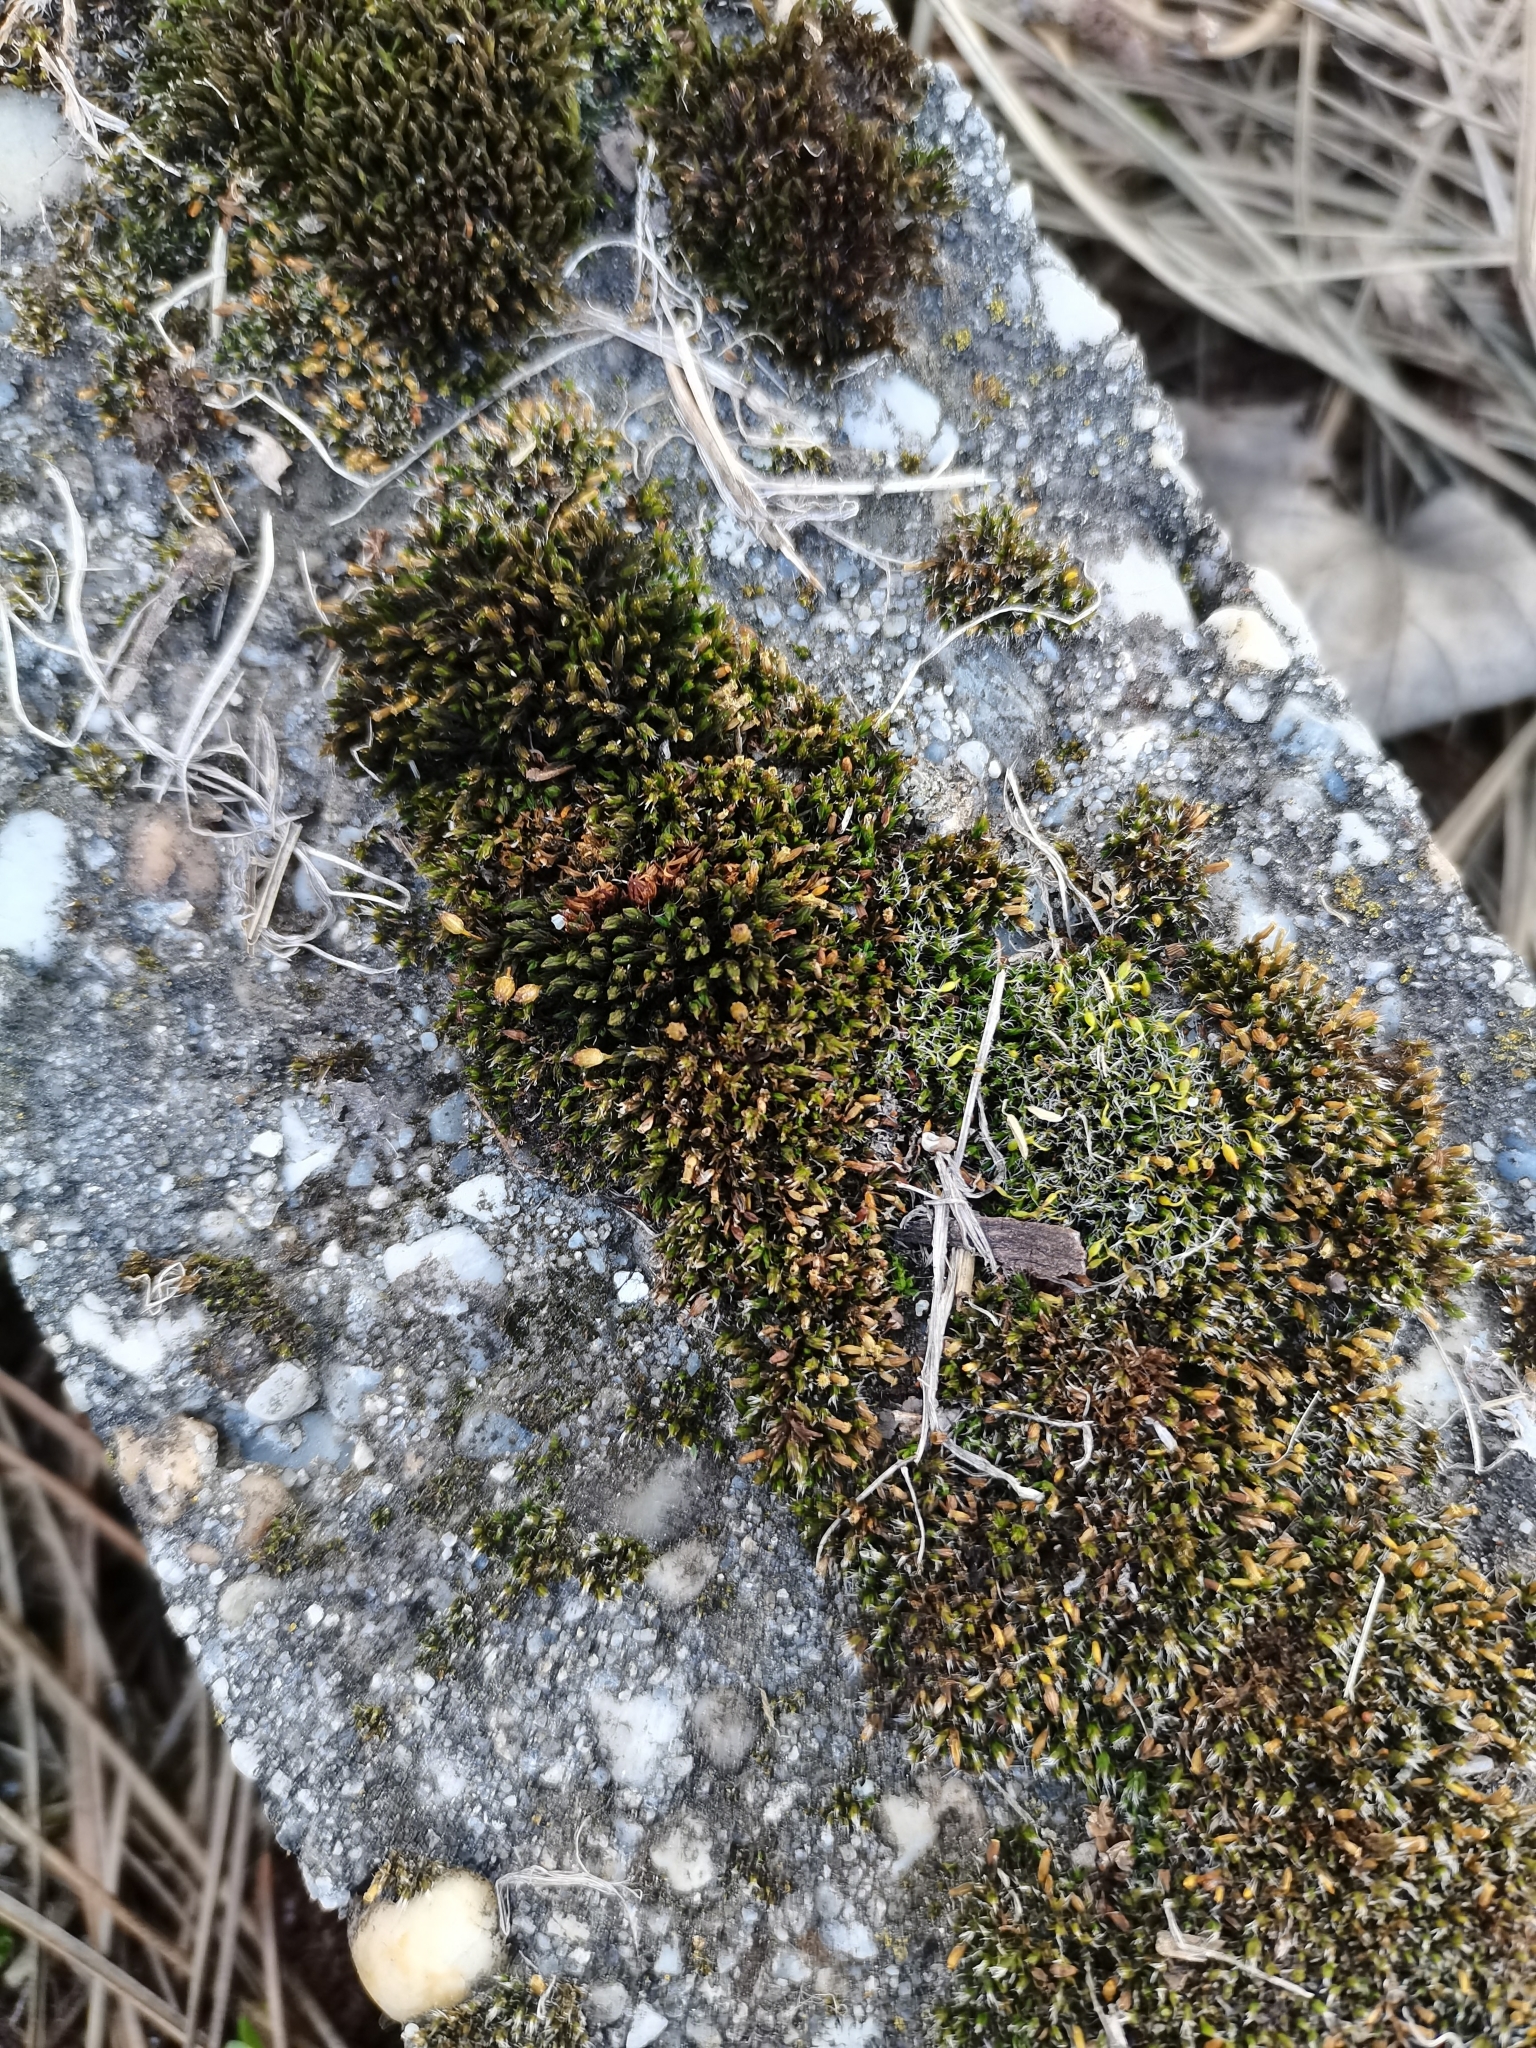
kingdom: Plantae
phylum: Bryophyta
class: Bryopsida
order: Orthotrichales
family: Orthotrichaceae
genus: Orthotrichum
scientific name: Orthotrichum anomalum
